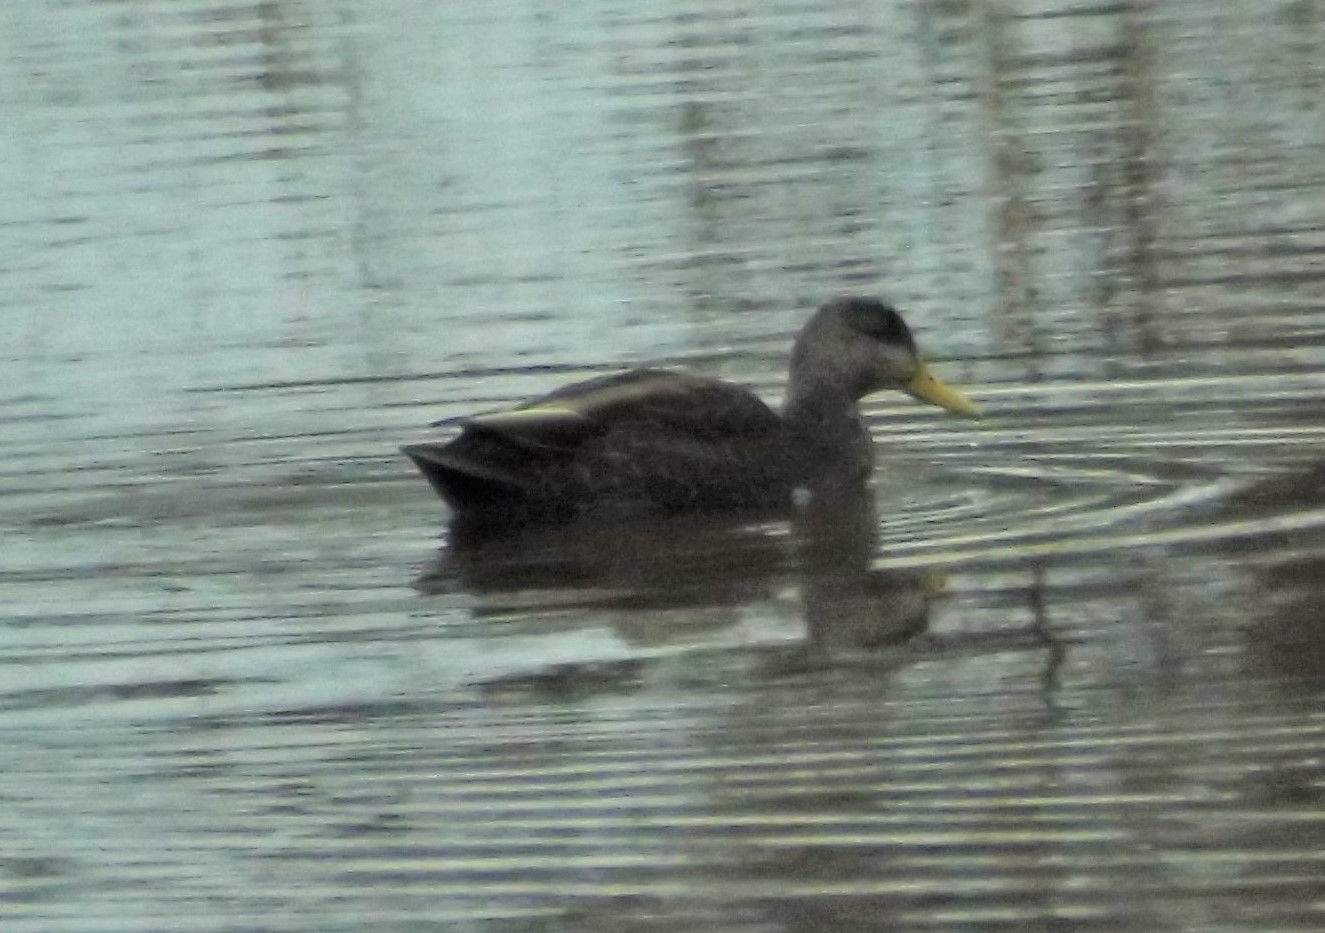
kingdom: Animalia
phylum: Chordata
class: Aves
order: Anseriformes
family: Anatidae
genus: Anas
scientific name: Anas rubripes
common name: American black duck
